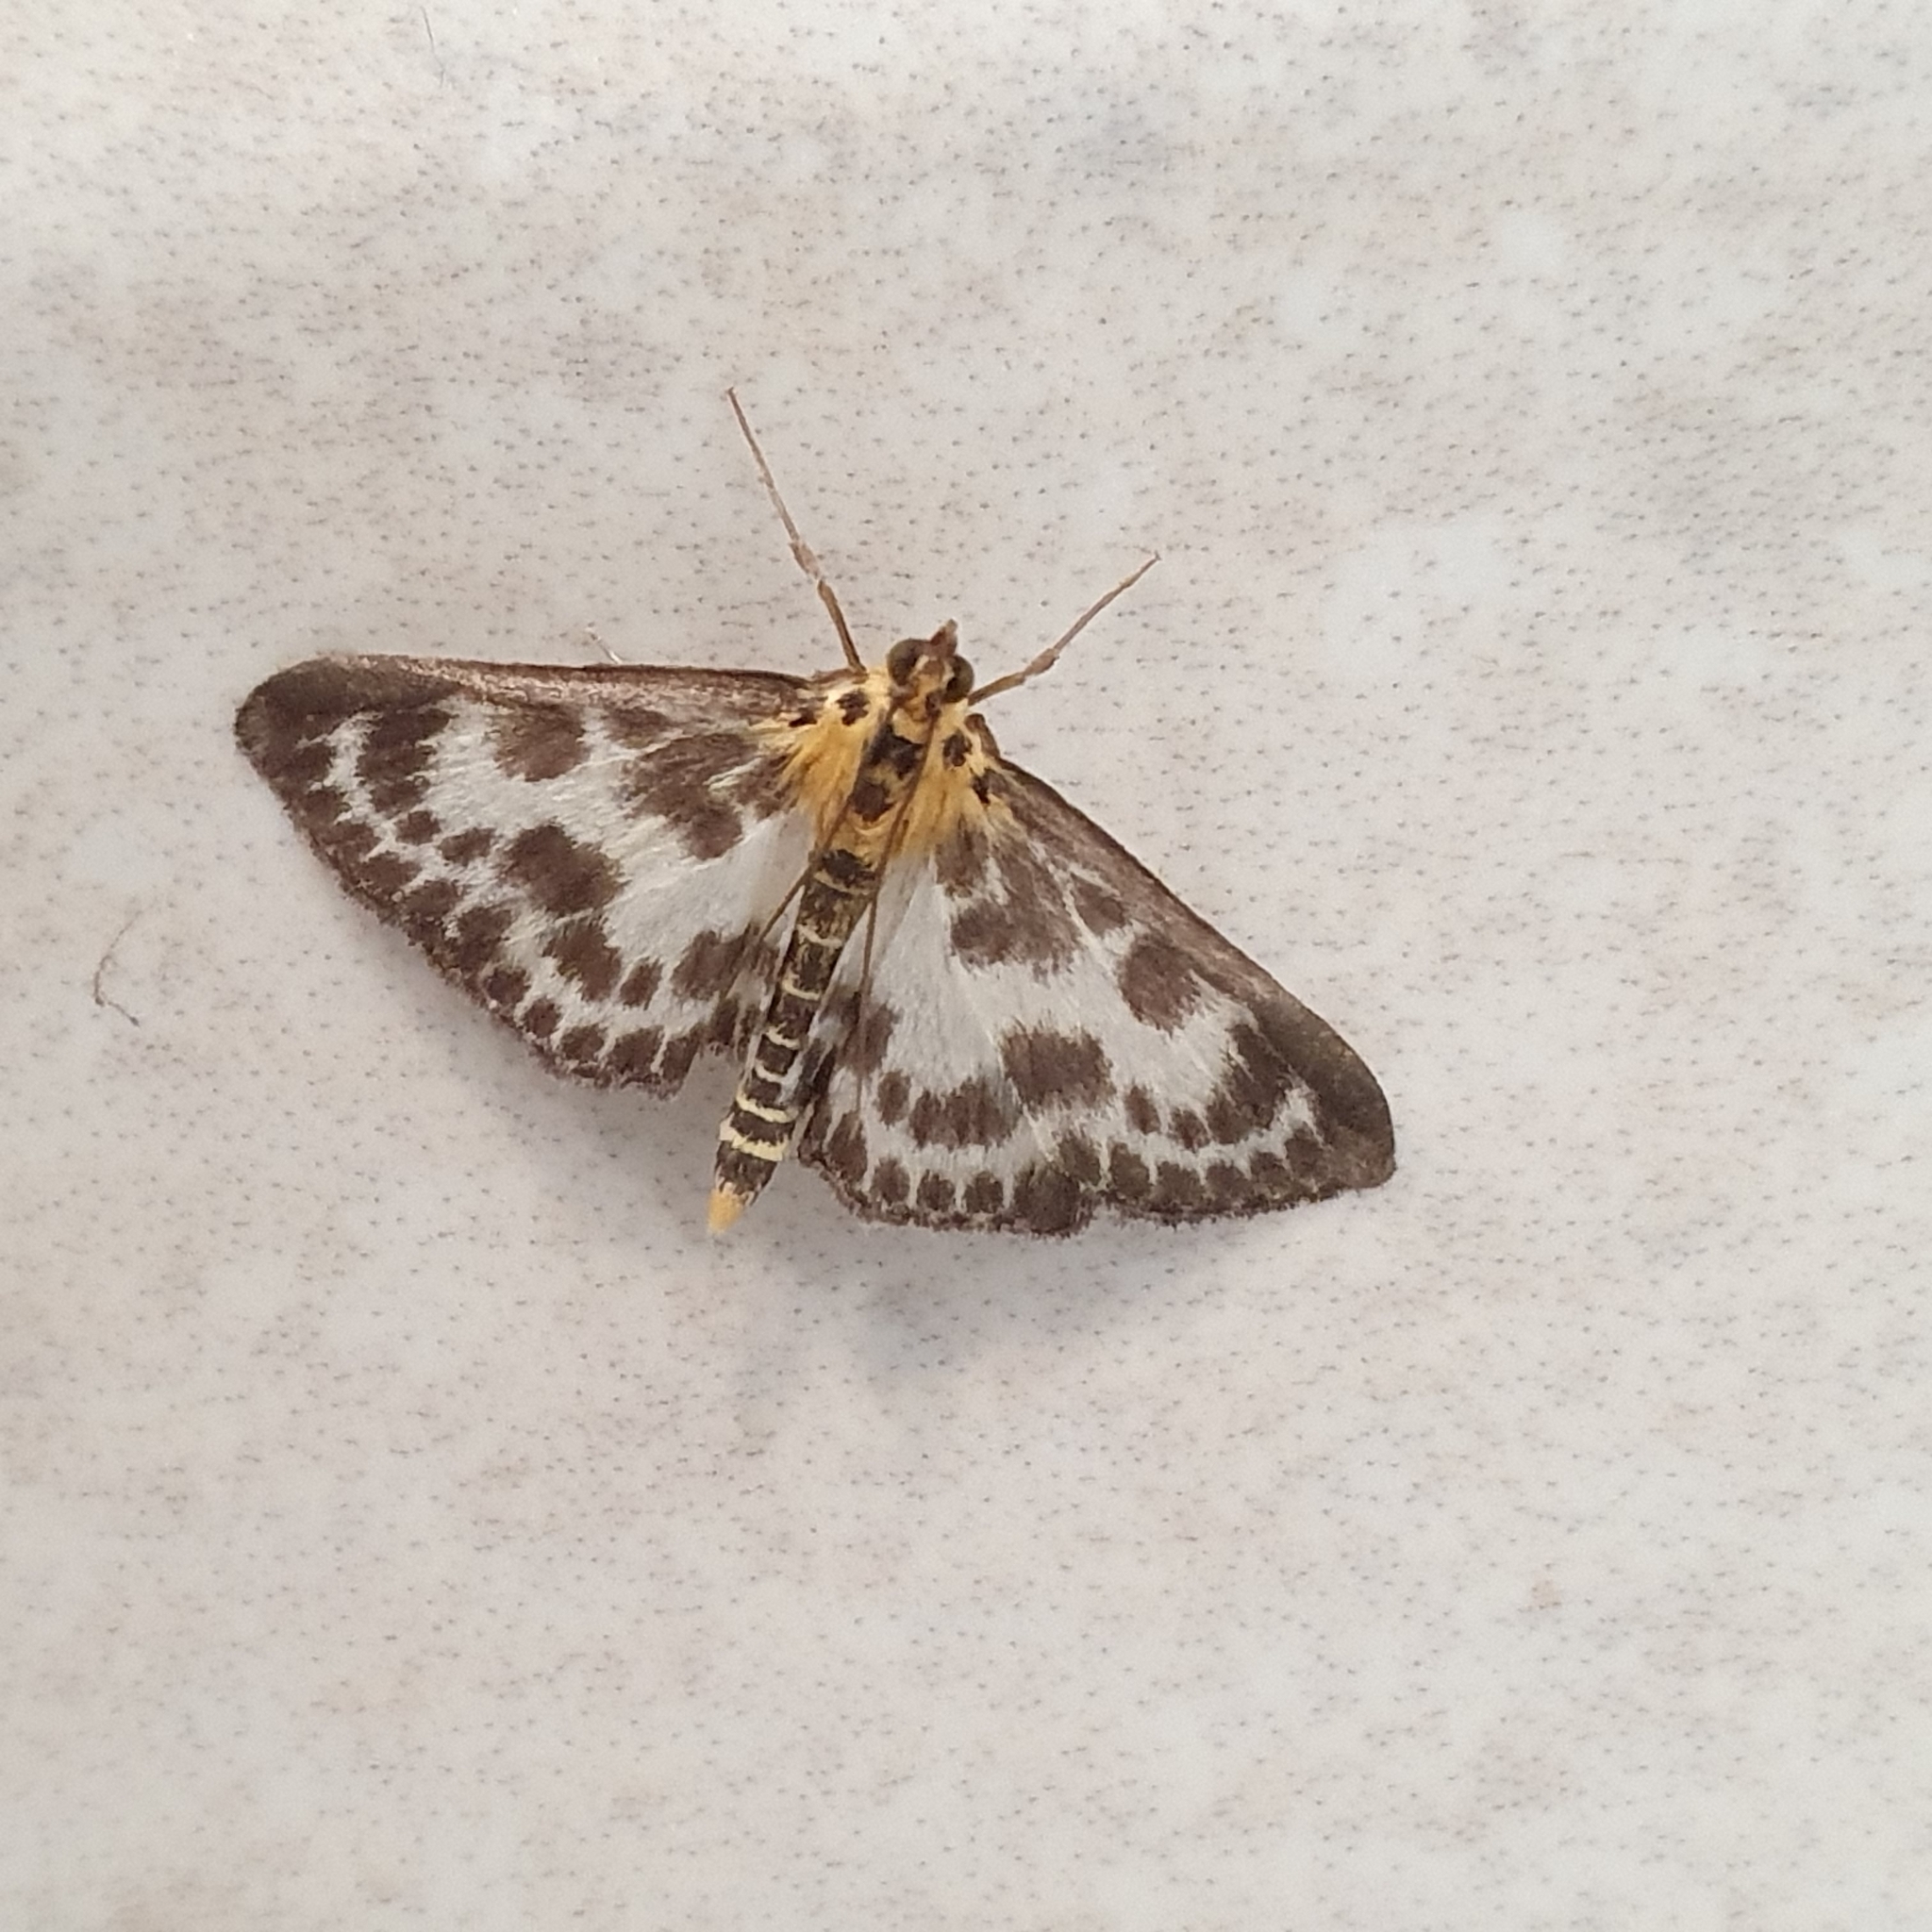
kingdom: Animalia
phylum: Arthropoda
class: Insecta
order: Lepidoptera
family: Crambidae
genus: Anania
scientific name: Anania hortulata
